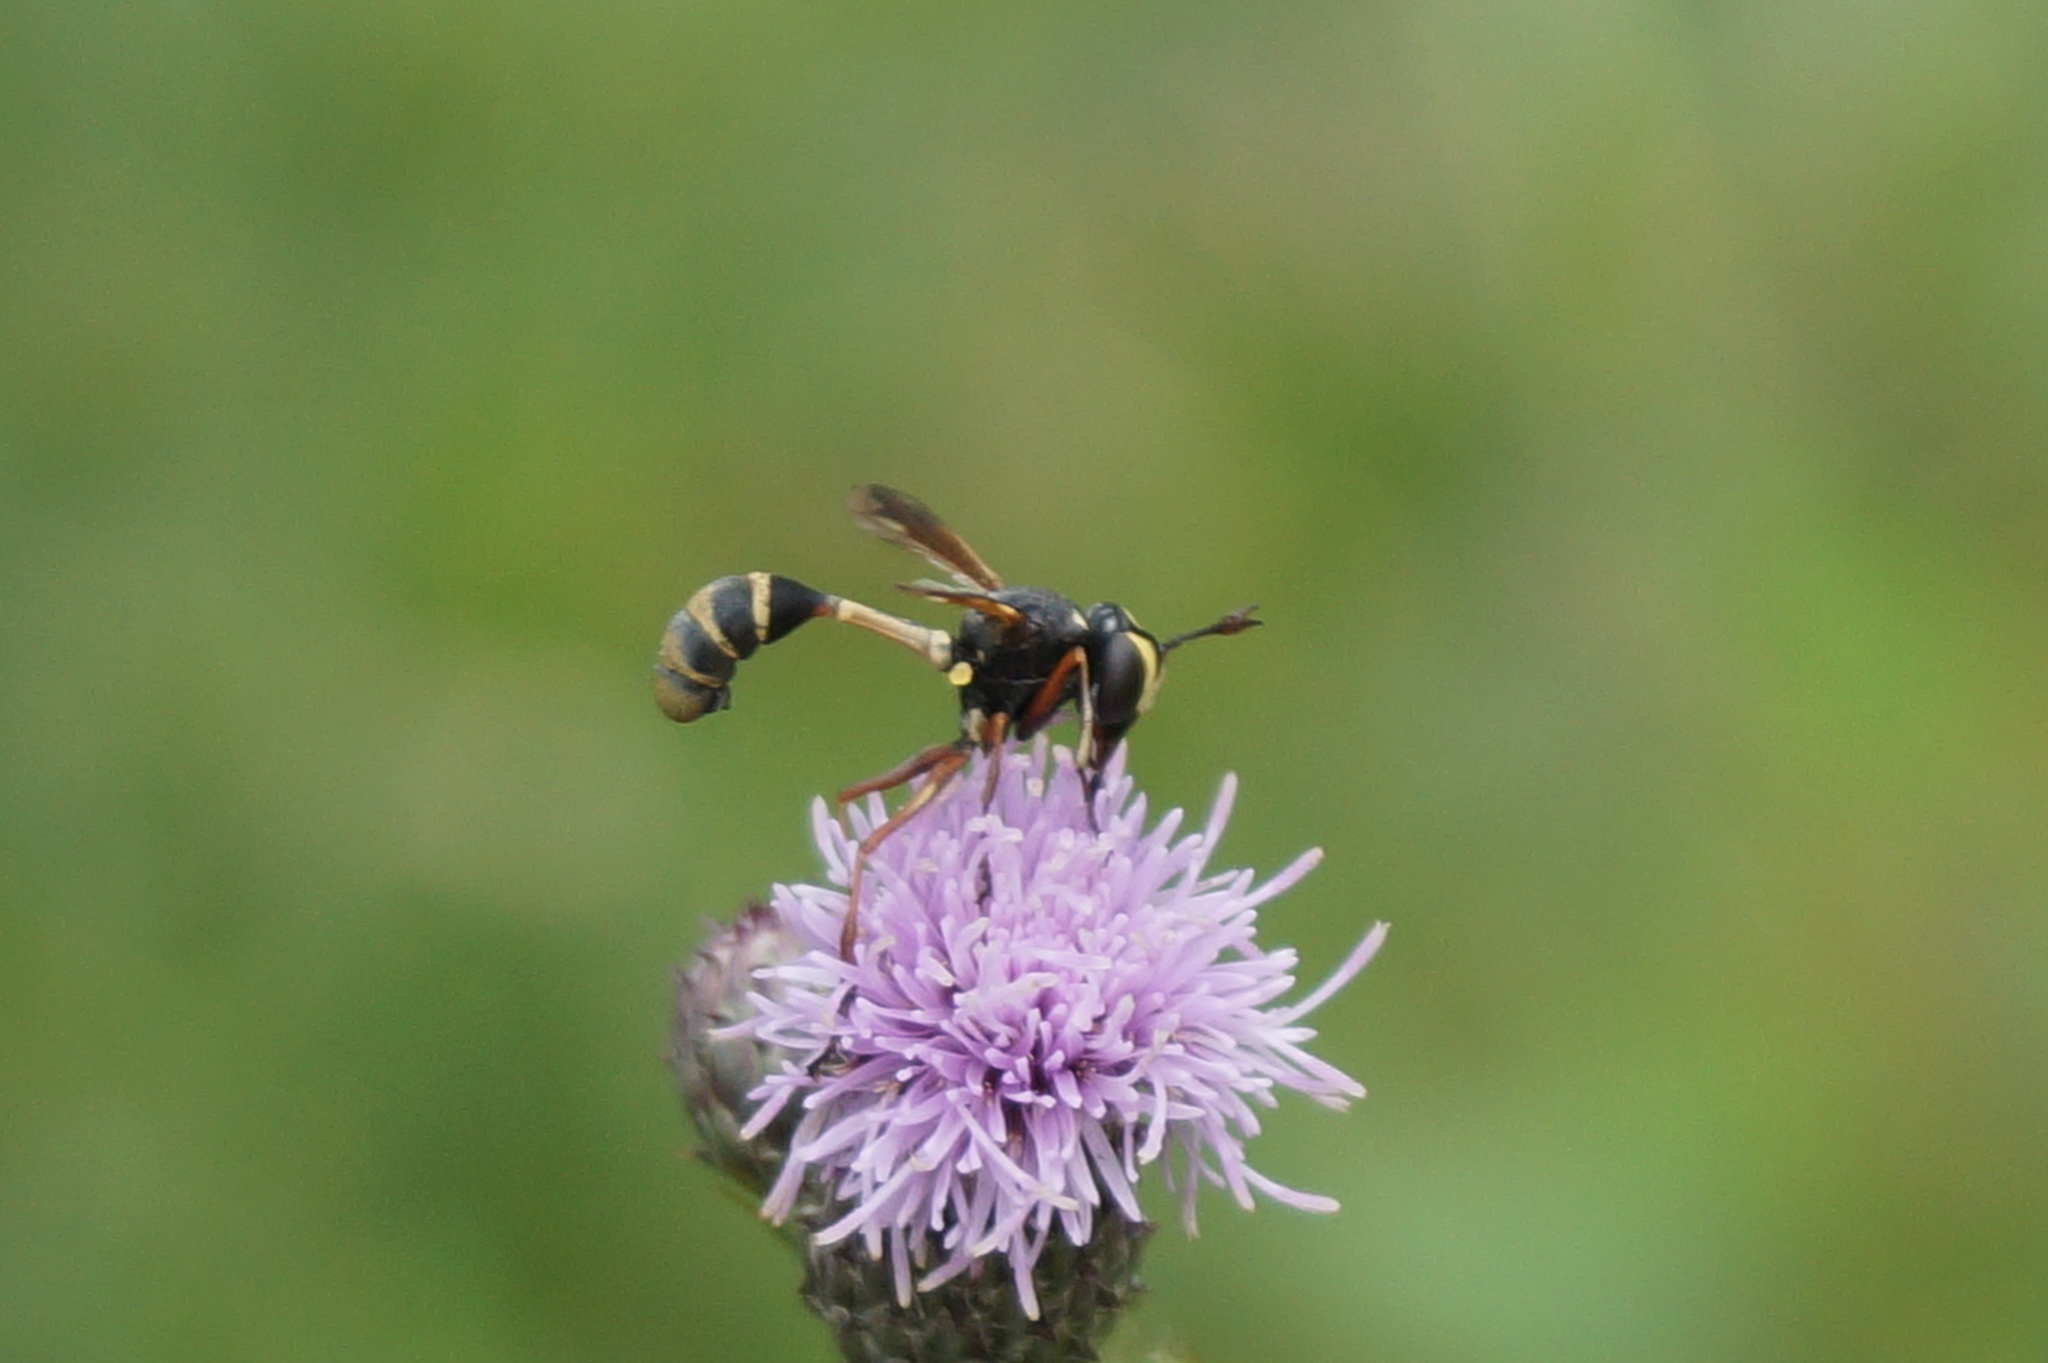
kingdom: Animalia
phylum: Arthropoda
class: Insecta
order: Diptera
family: Conopidae
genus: Physocephala
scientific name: Physocephala rufipes
